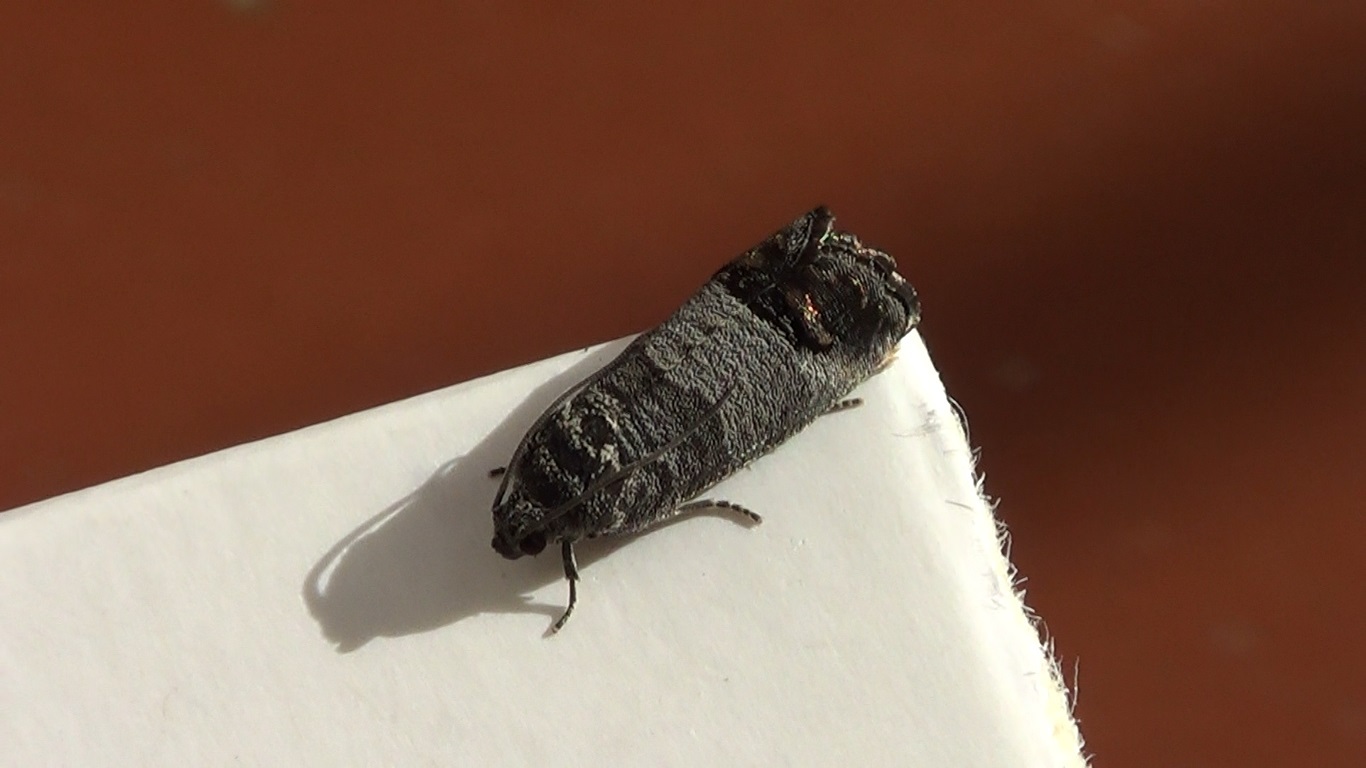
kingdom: Animalia
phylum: Arthropoda
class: Insecta
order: Lepidoptera
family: Tortricidae
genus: Cydia
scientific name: Cydia pomonella
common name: Codling moth
